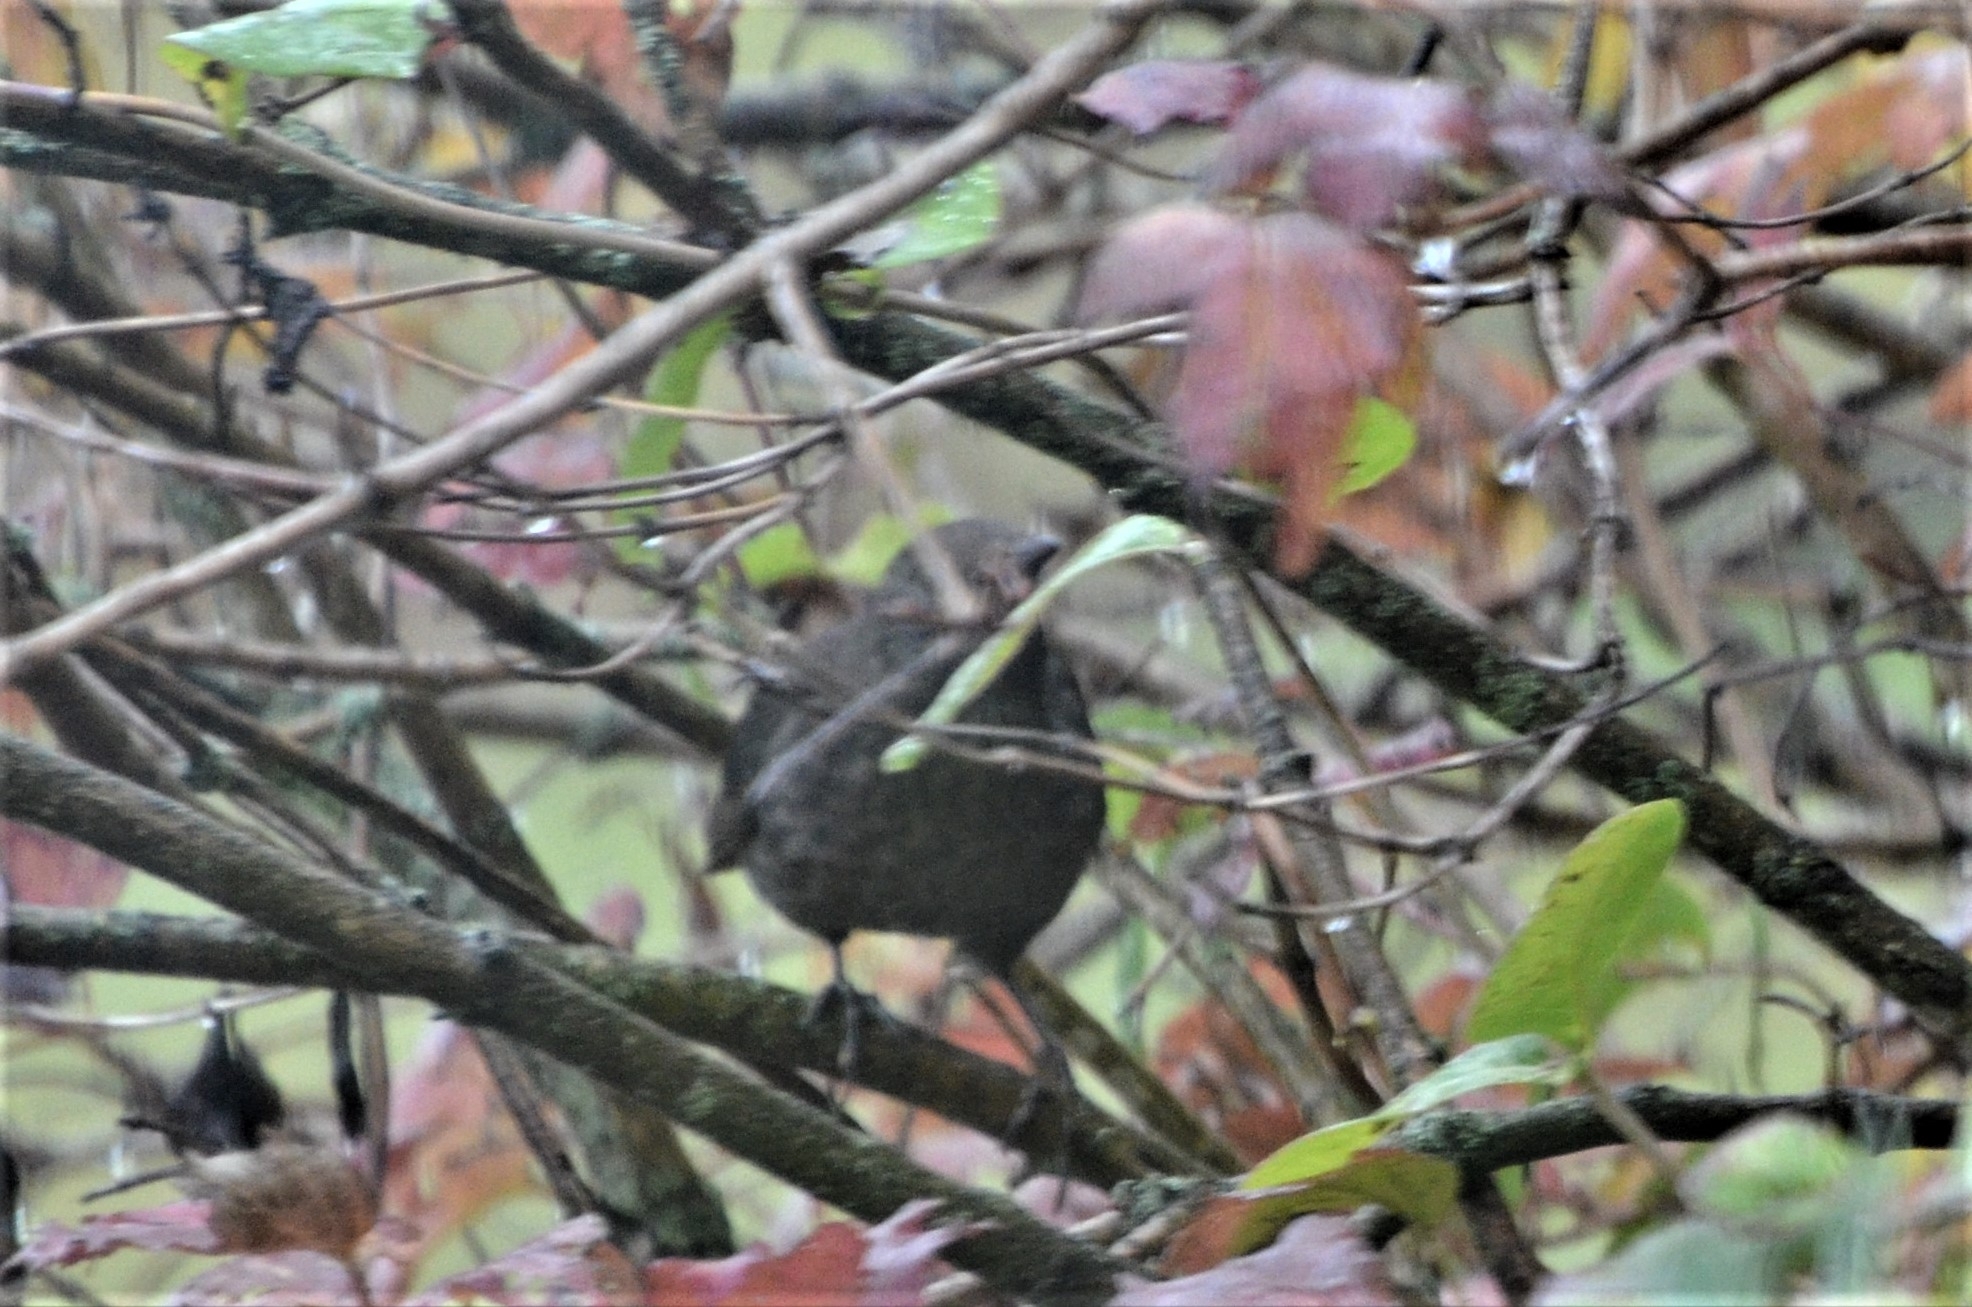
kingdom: Animalia
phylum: Chordata
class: Aves
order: Passeriformes
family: Turdidae
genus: Turdus
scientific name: Turdus merula
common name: Common blackbird
